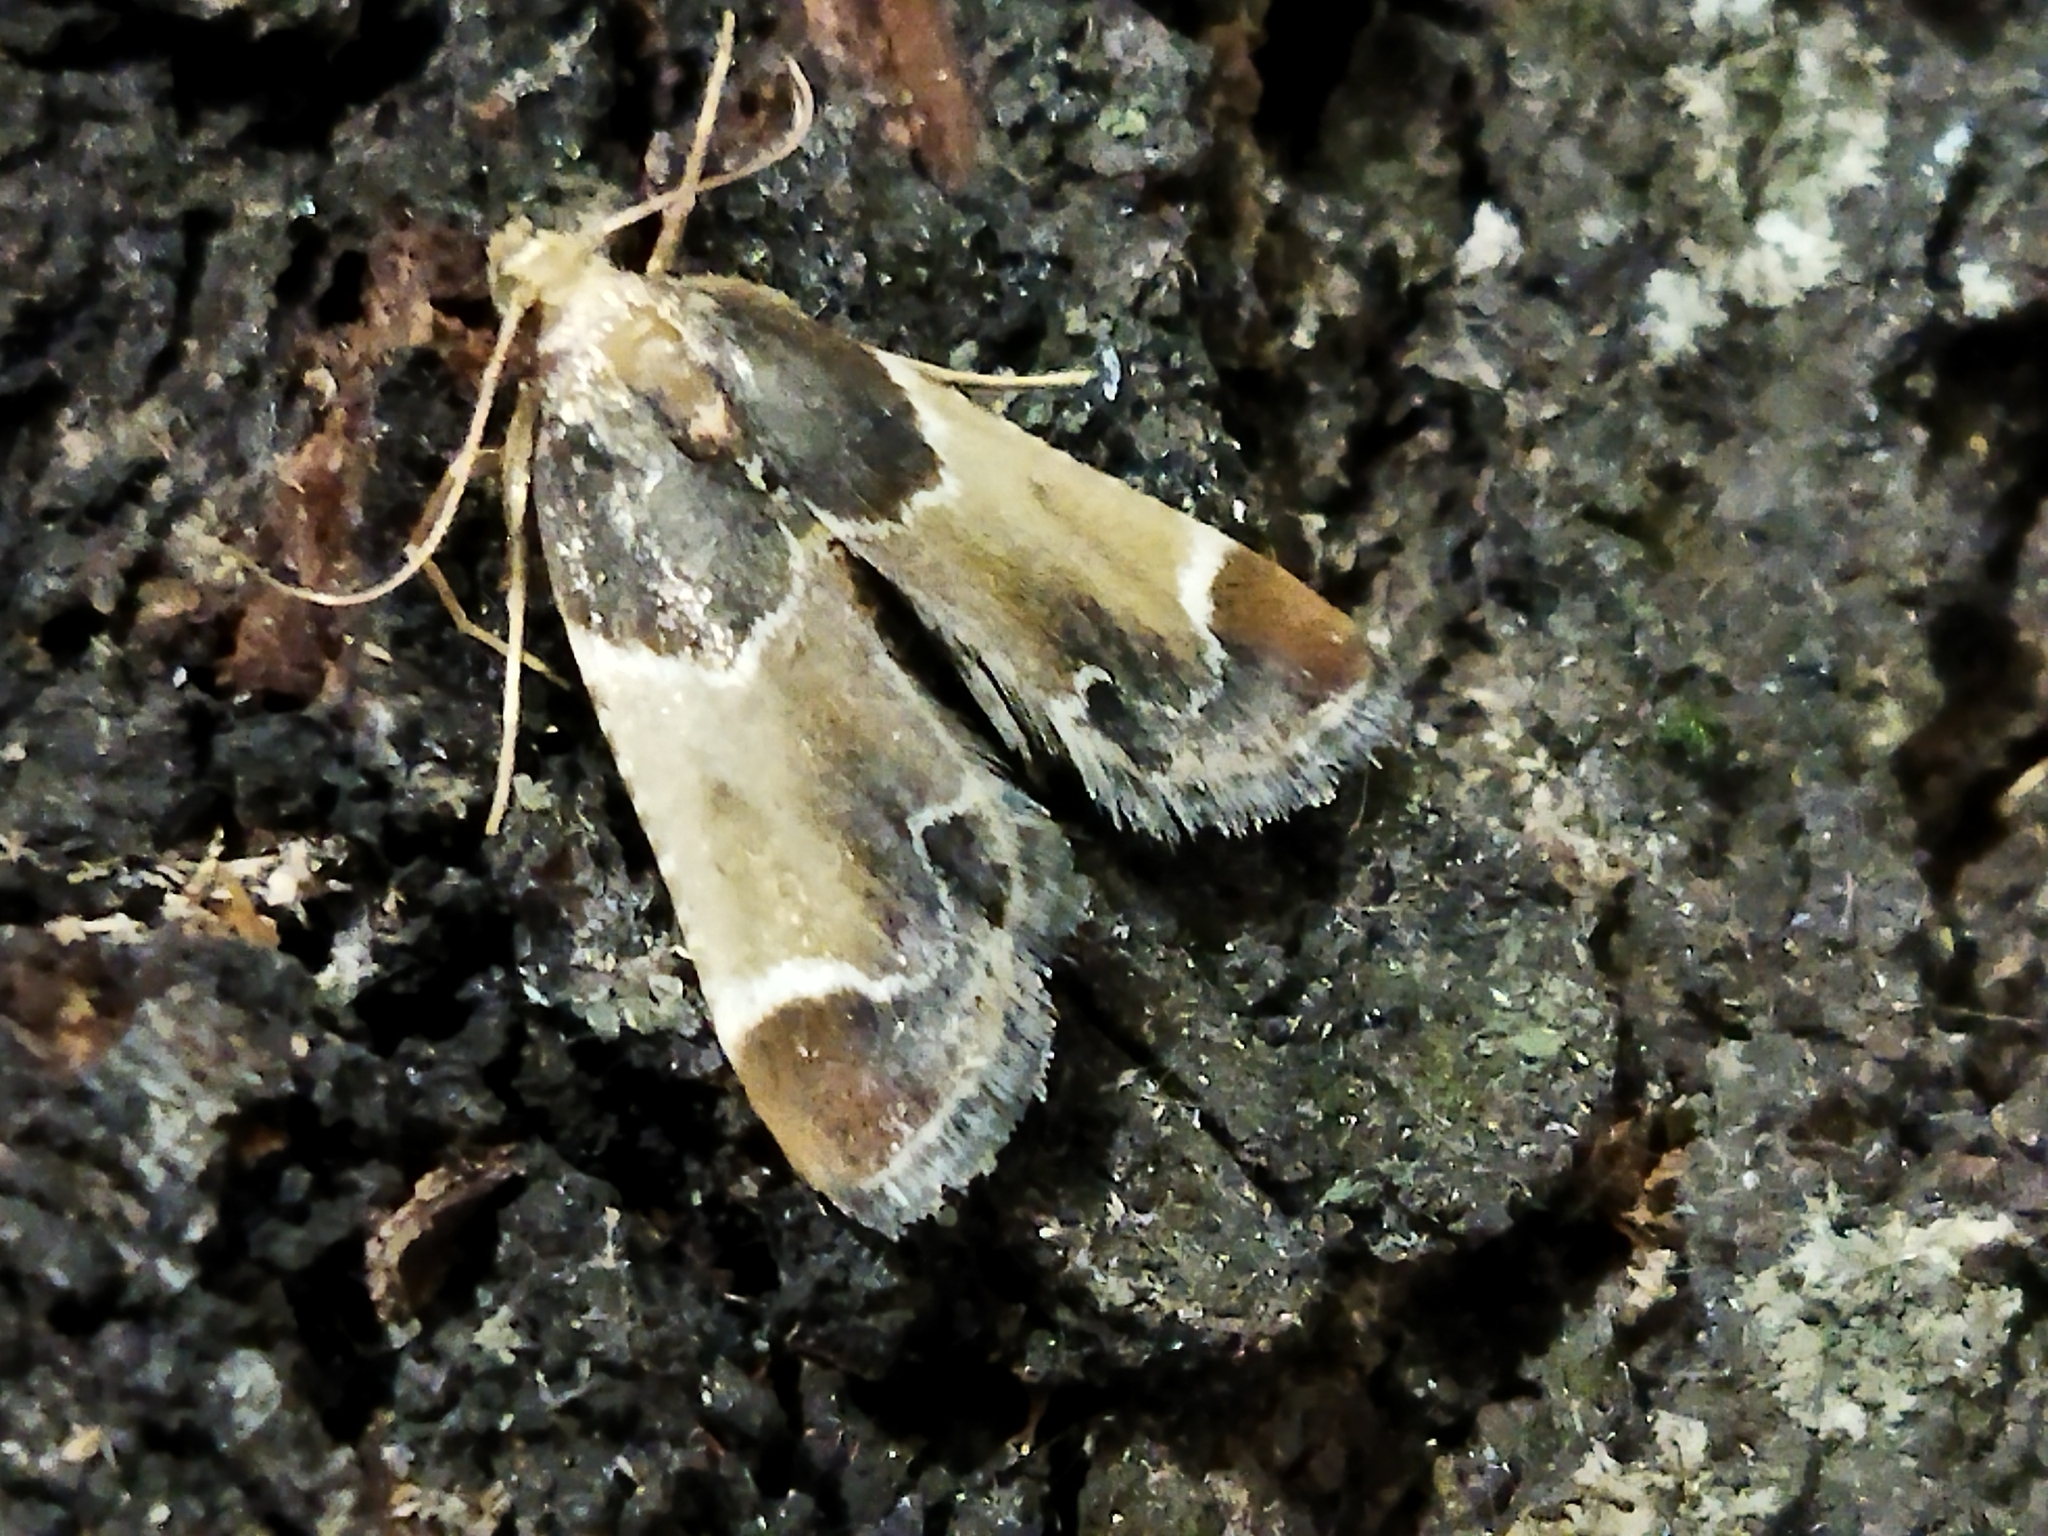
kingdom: Animalia
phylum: Arthropoda
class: Insecta
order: Lepidoptera
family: Pyralidae
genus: Pyralis
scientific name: Pyralis farinalis
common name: Meal moth
